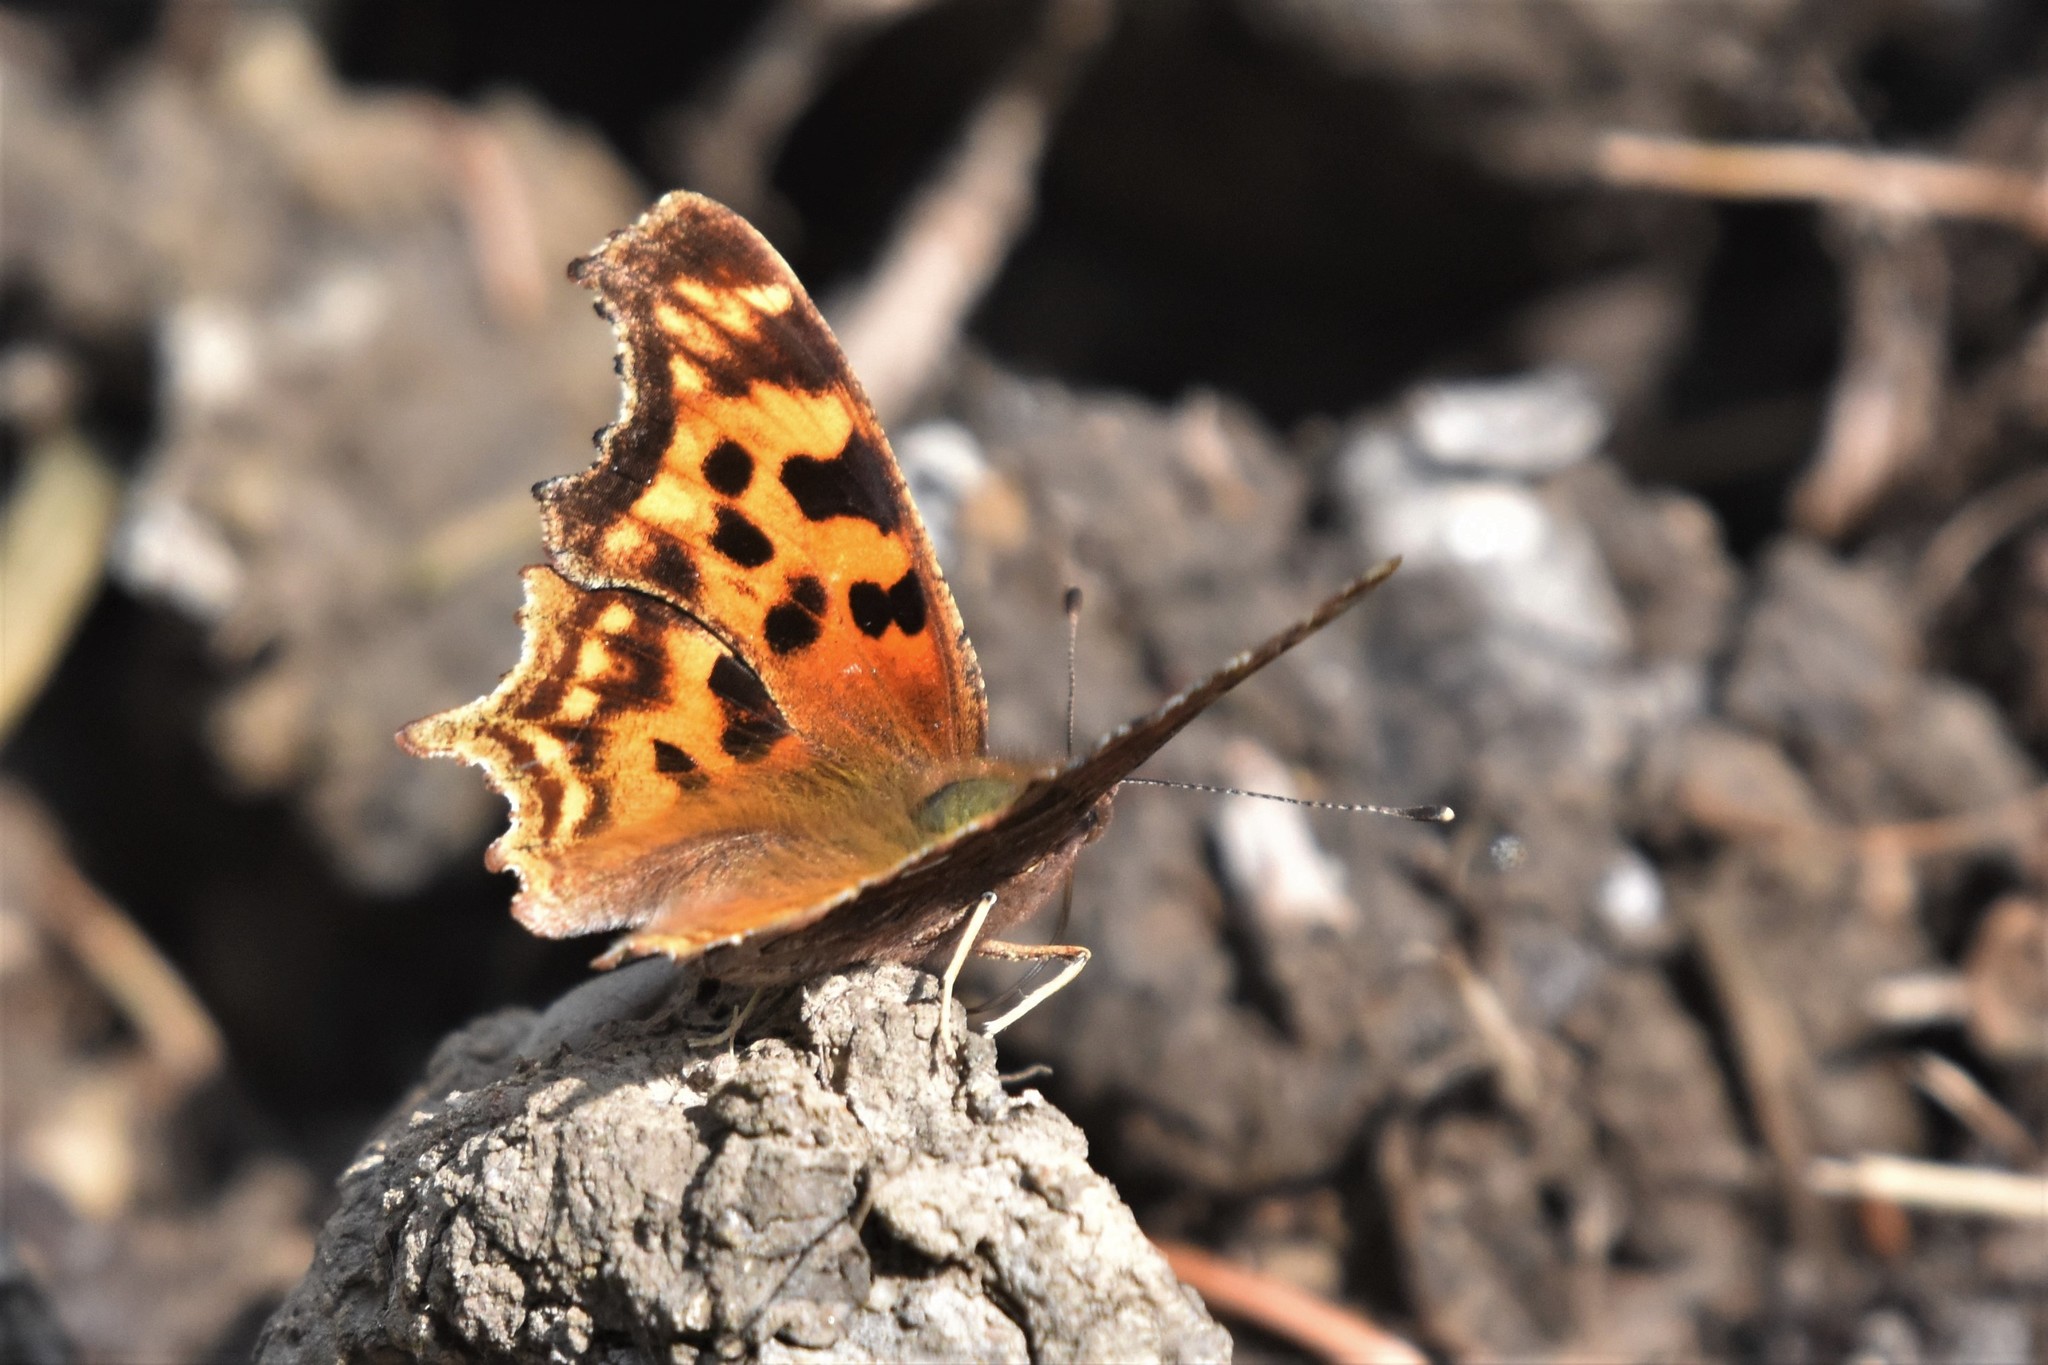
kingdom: Animalia
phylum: Arthropoda
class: Insecta
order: Lepidoptera
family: Nymphalidae
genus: Polygonia
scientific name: Polygonia satyrus
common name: Satyr angle wing
